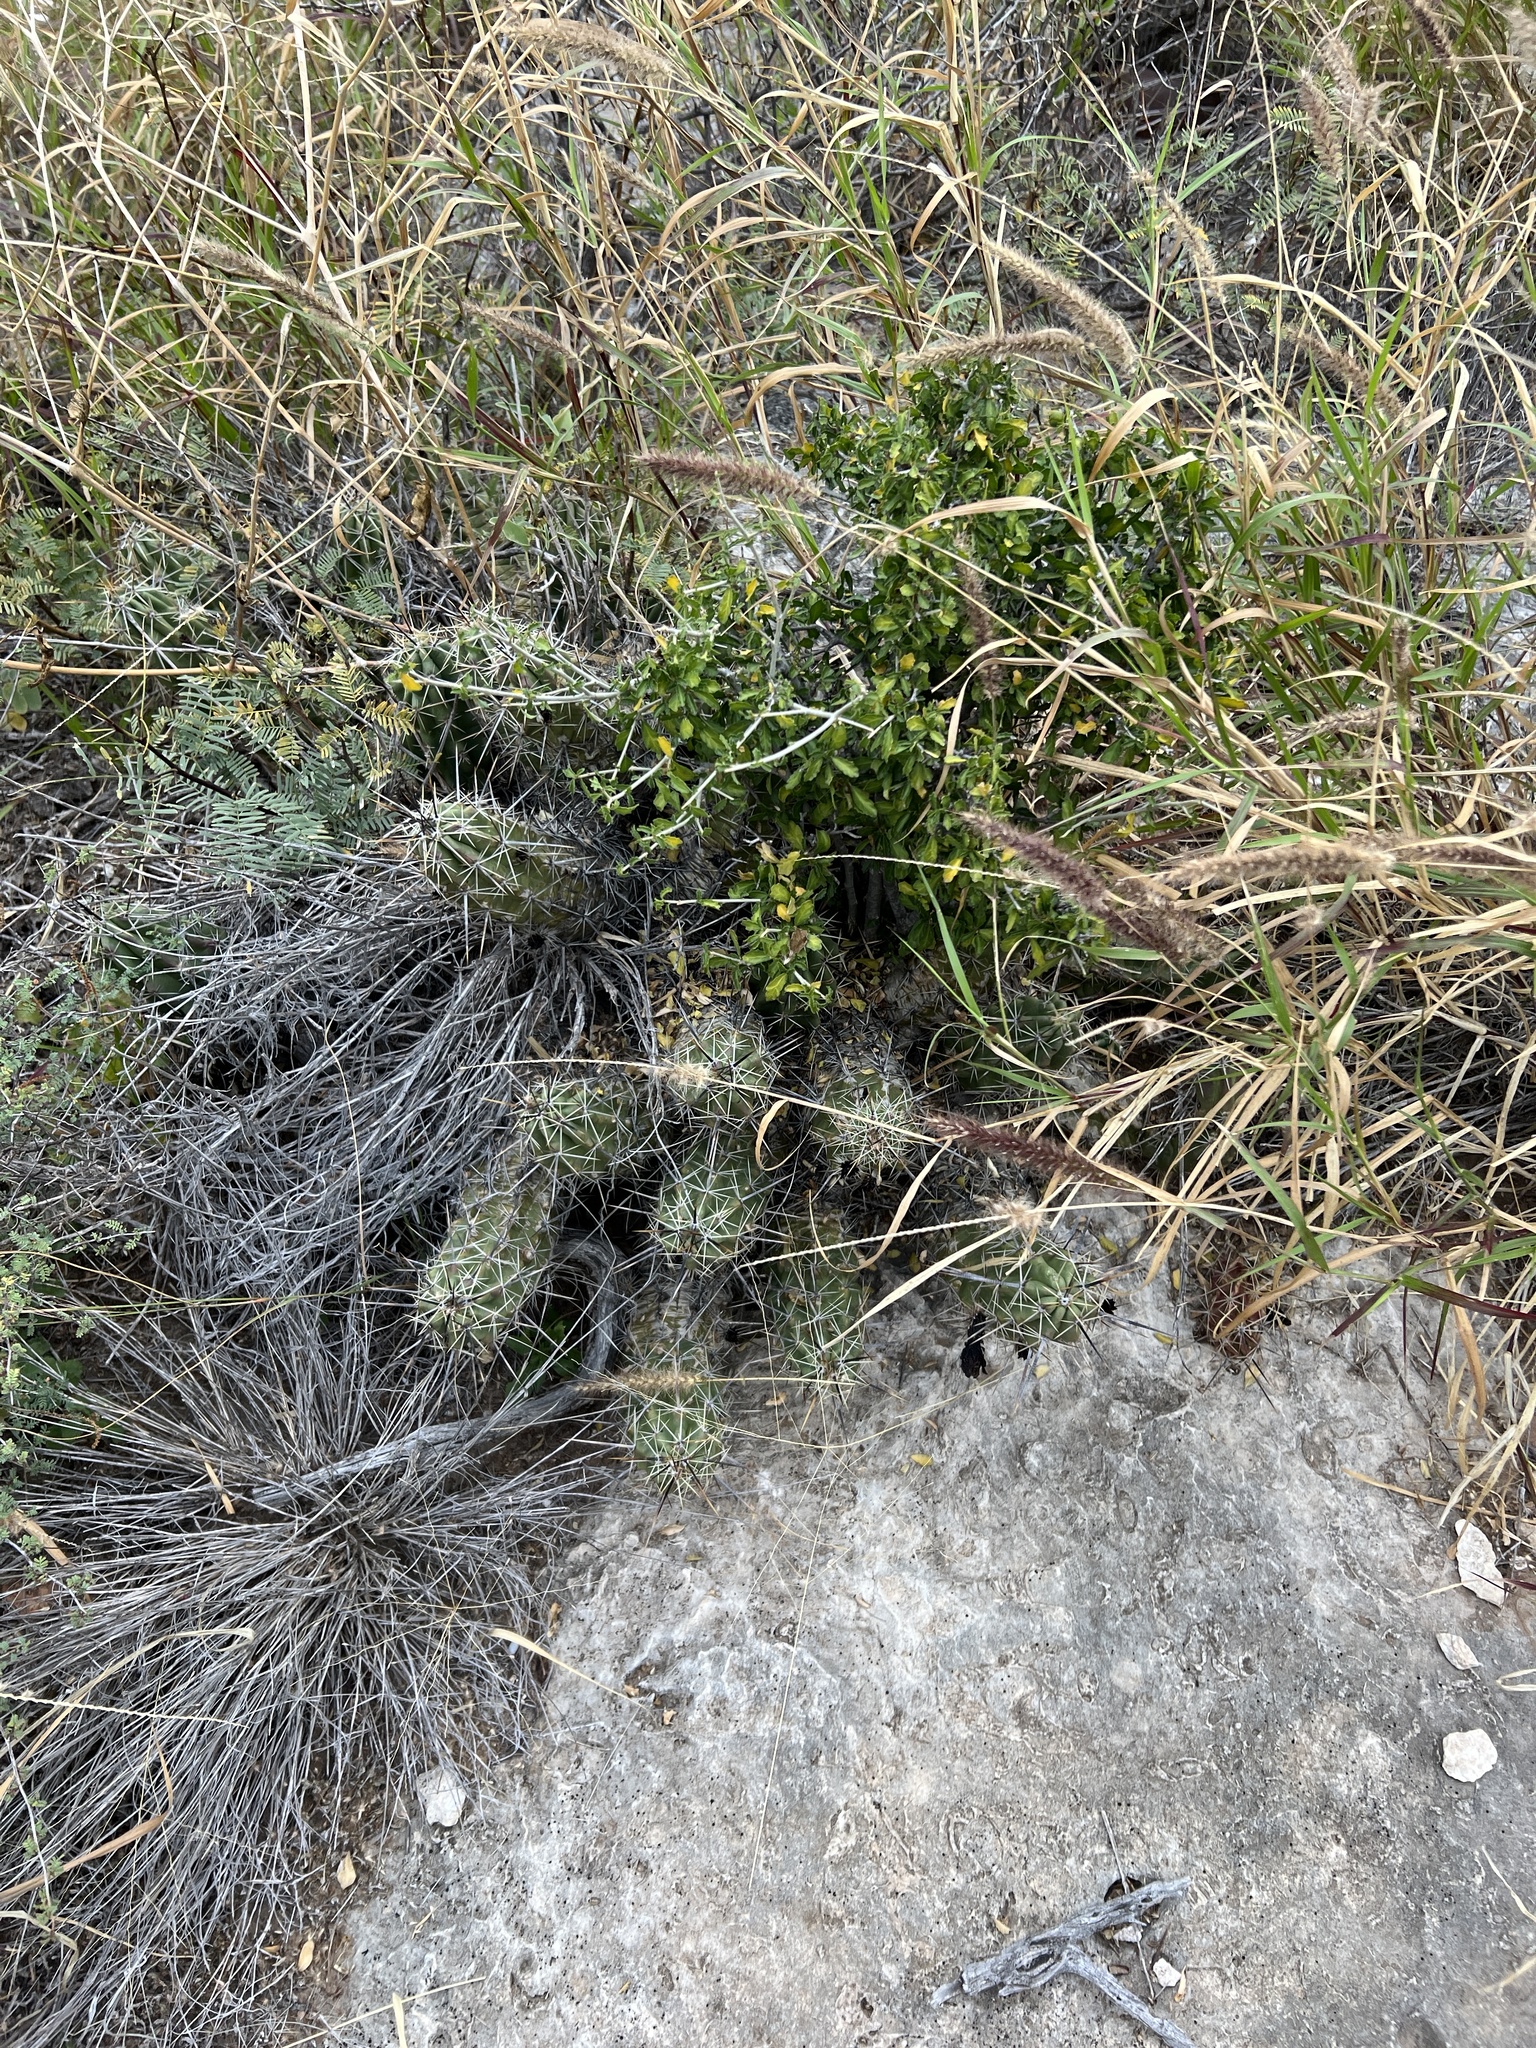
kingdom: Plantae
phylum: Tracheophyta
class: Magnoliopsida
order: Caryophyllales
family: Cactaceae
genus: Echinocereus
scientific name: Echinocereus enneacanthus
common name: Pitaya
